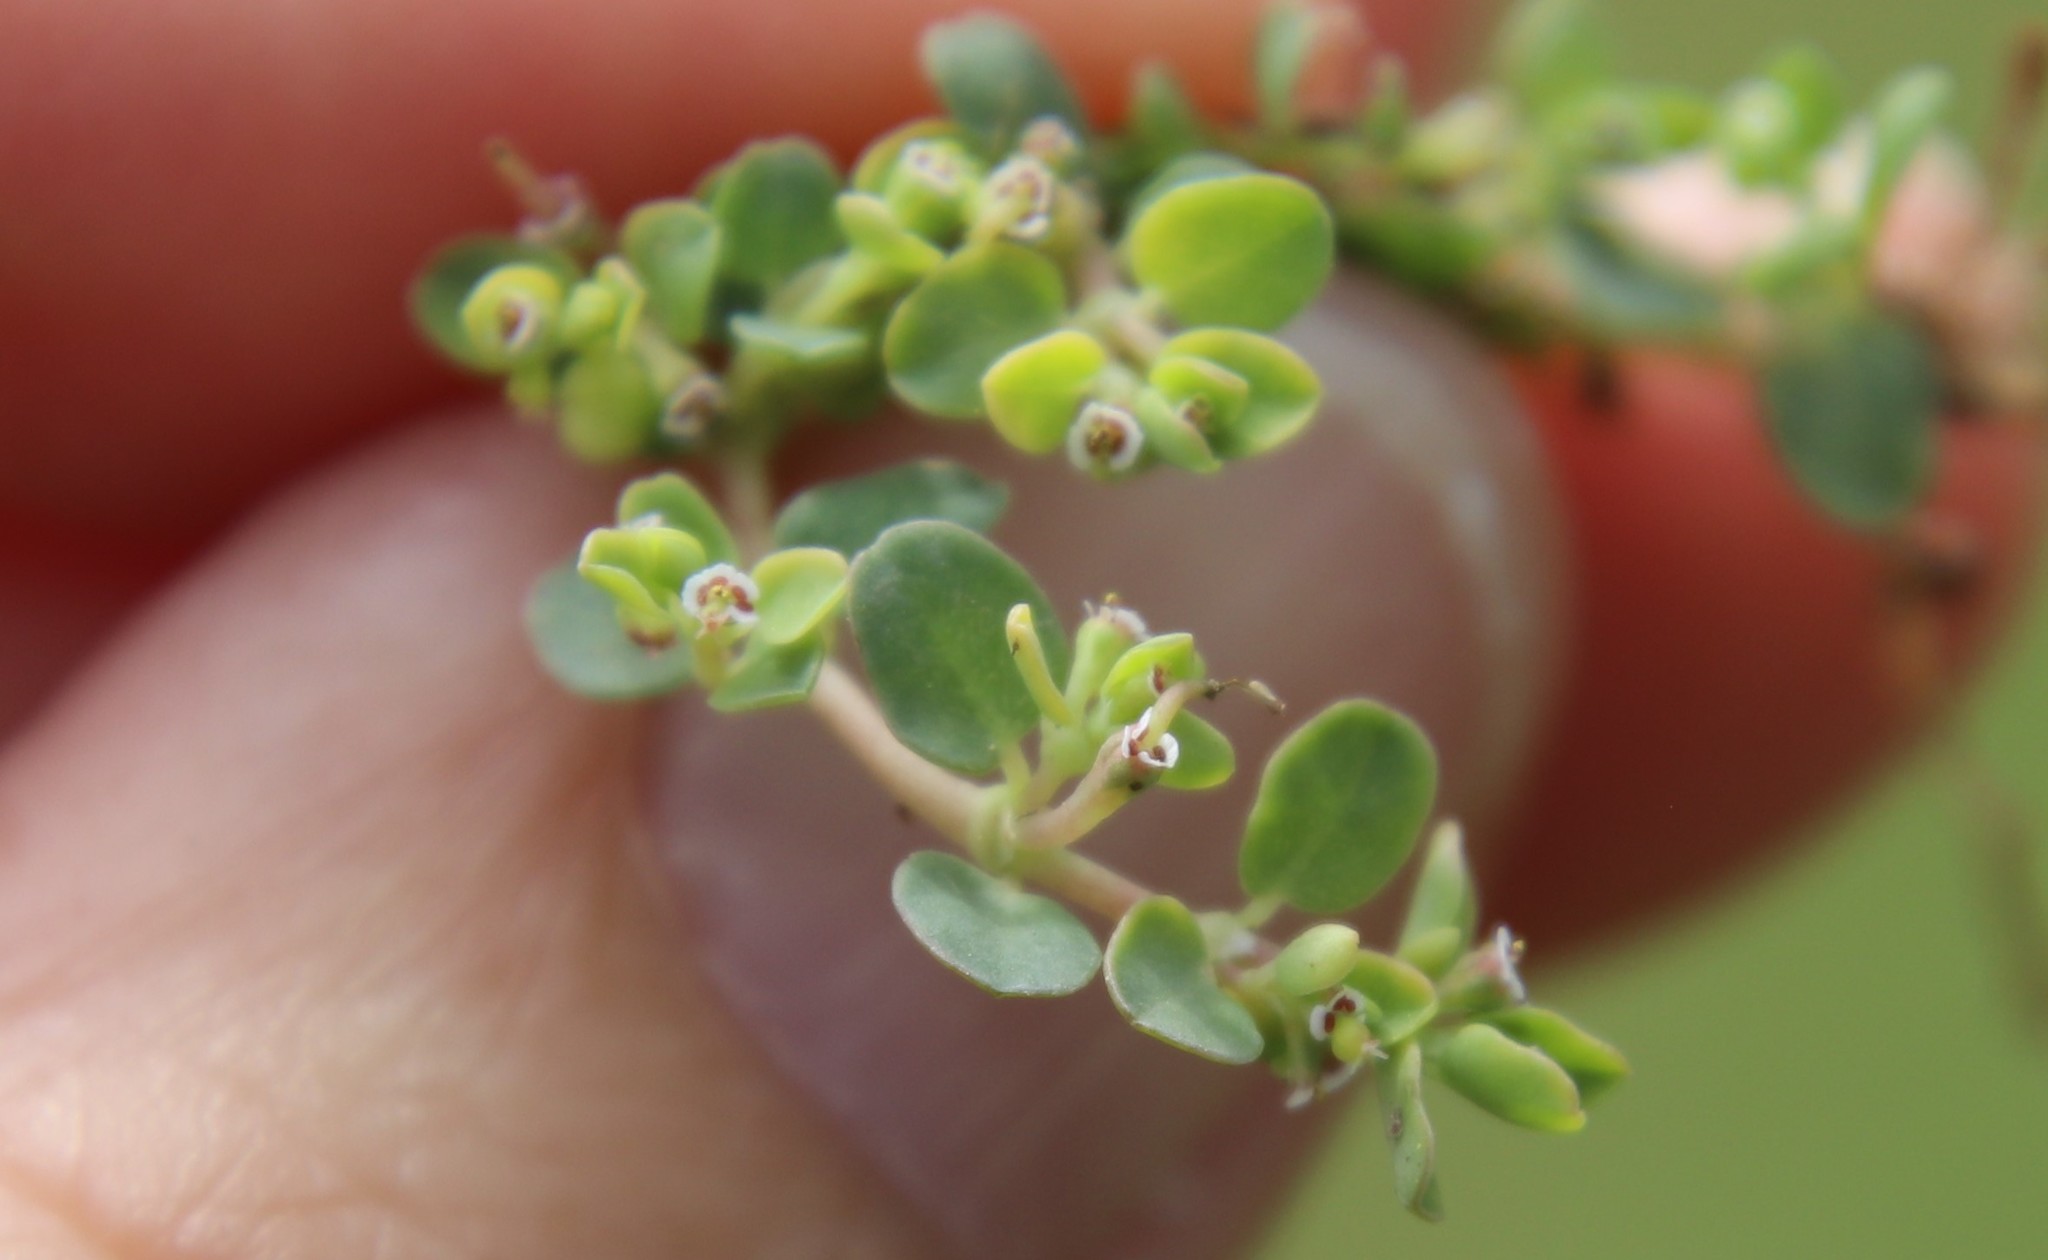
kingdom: Plantae
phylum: Tracheophyta
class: Magnoliopsida
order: Malpighiales
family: Euphorbiaceae
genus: Euphorbia
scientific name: Euphorbia serpens
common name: Matted sandmat
